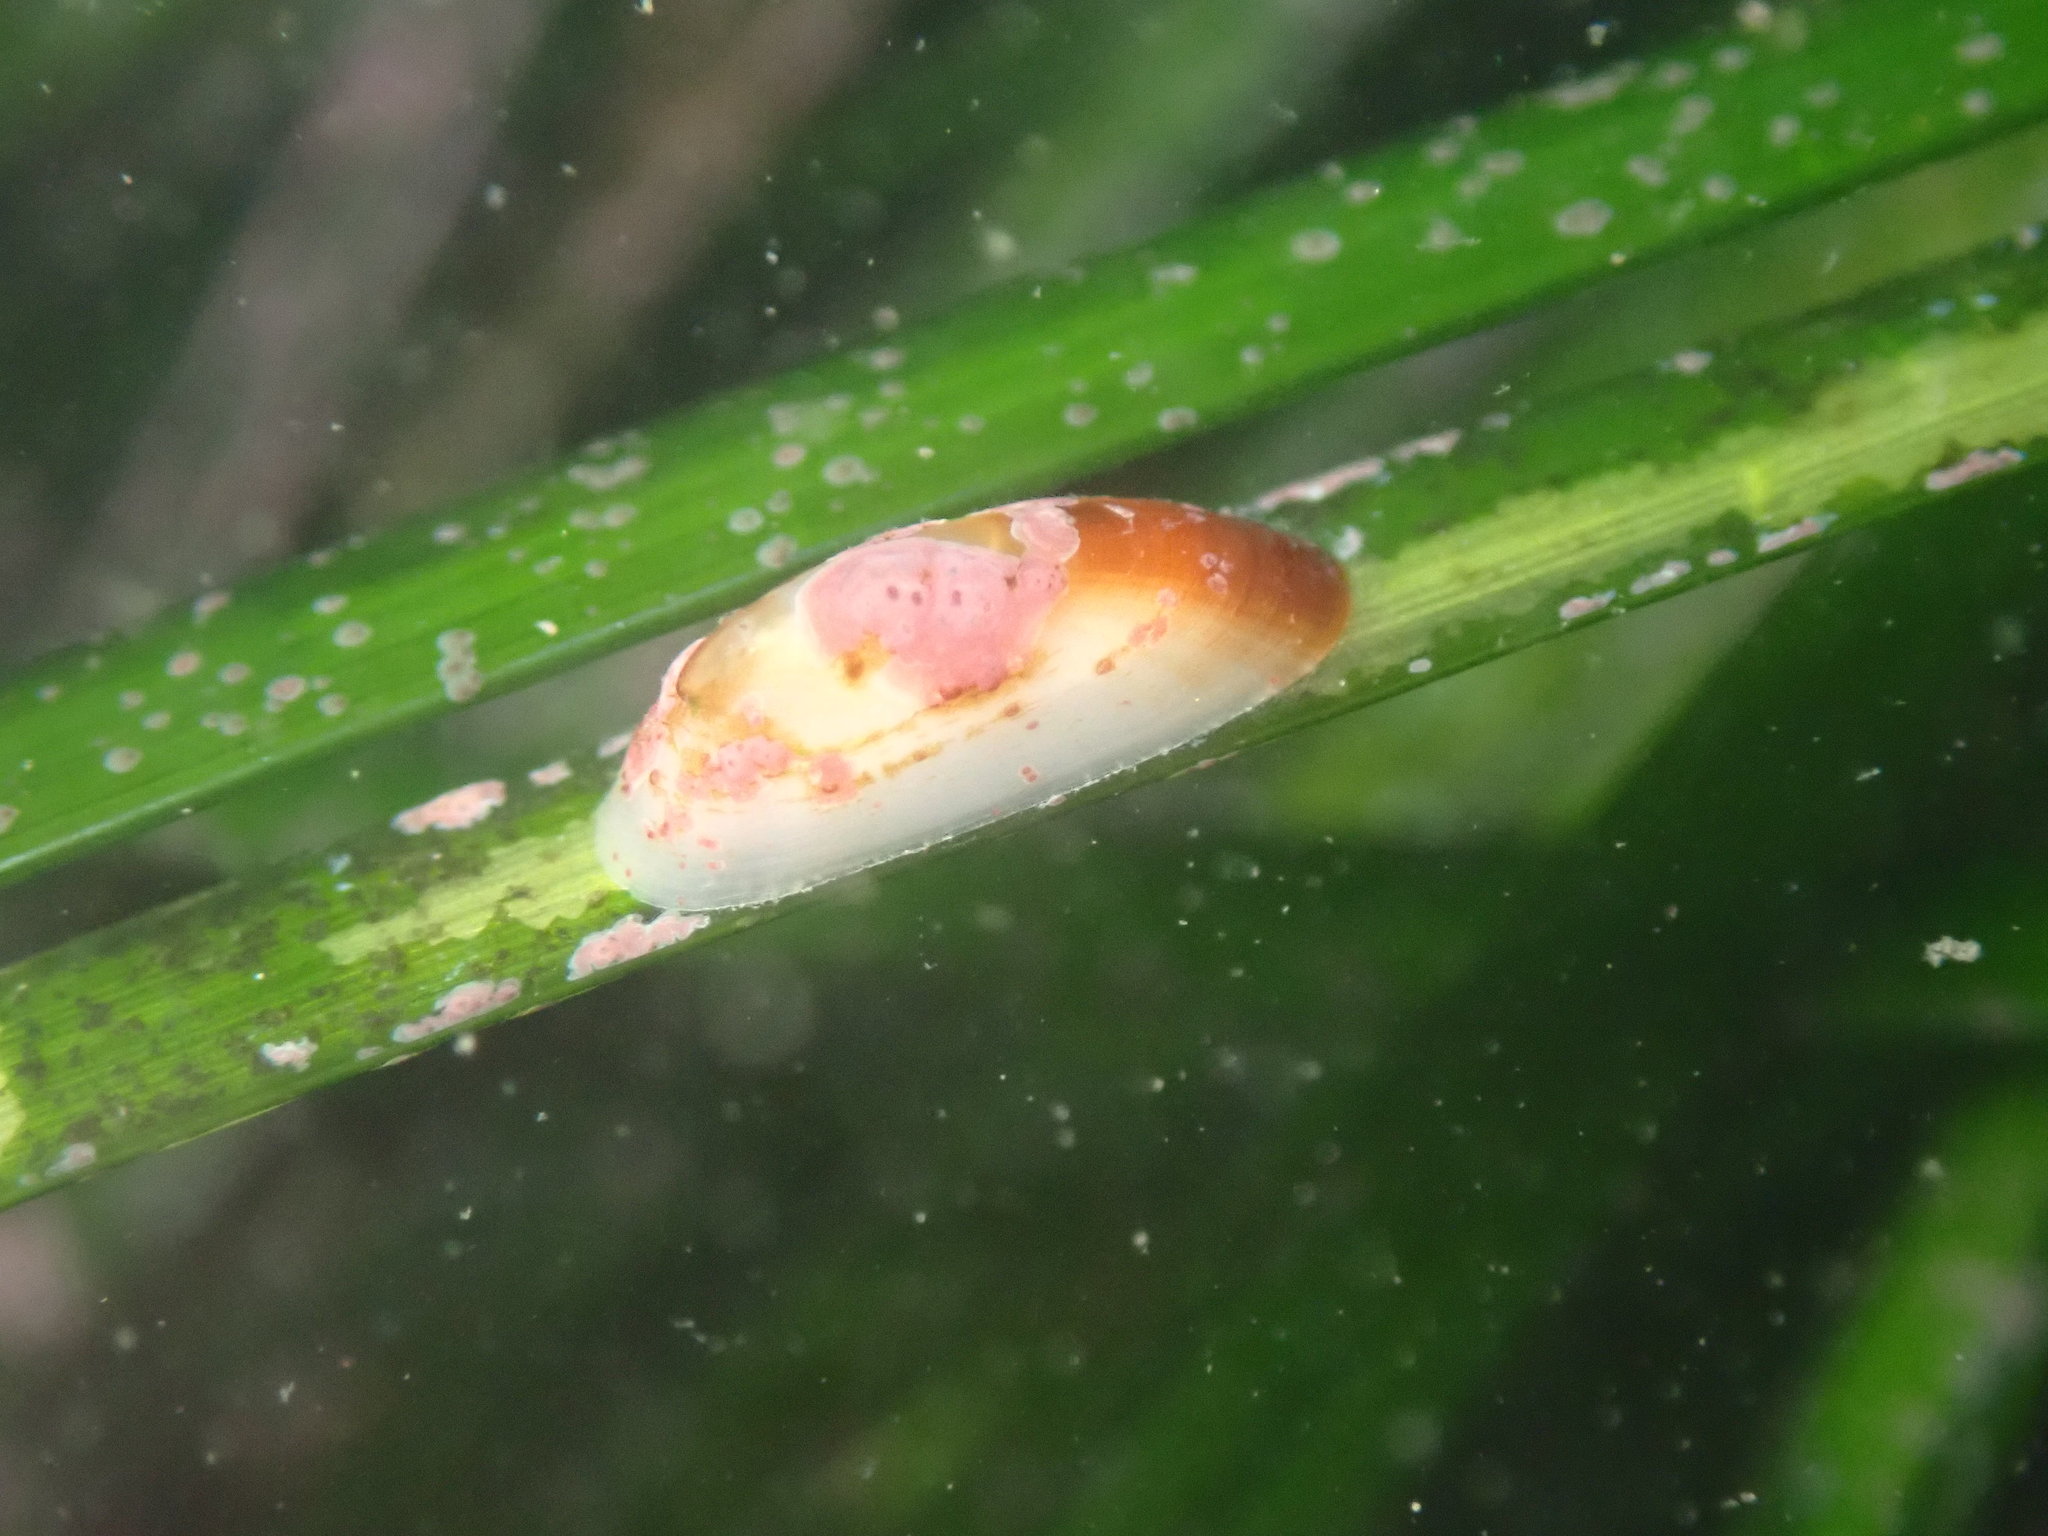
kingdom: Animalia
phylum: Mollusca
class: Gastropoda
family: Lottiidae
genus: Tectura
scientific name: Tectura paleacea
